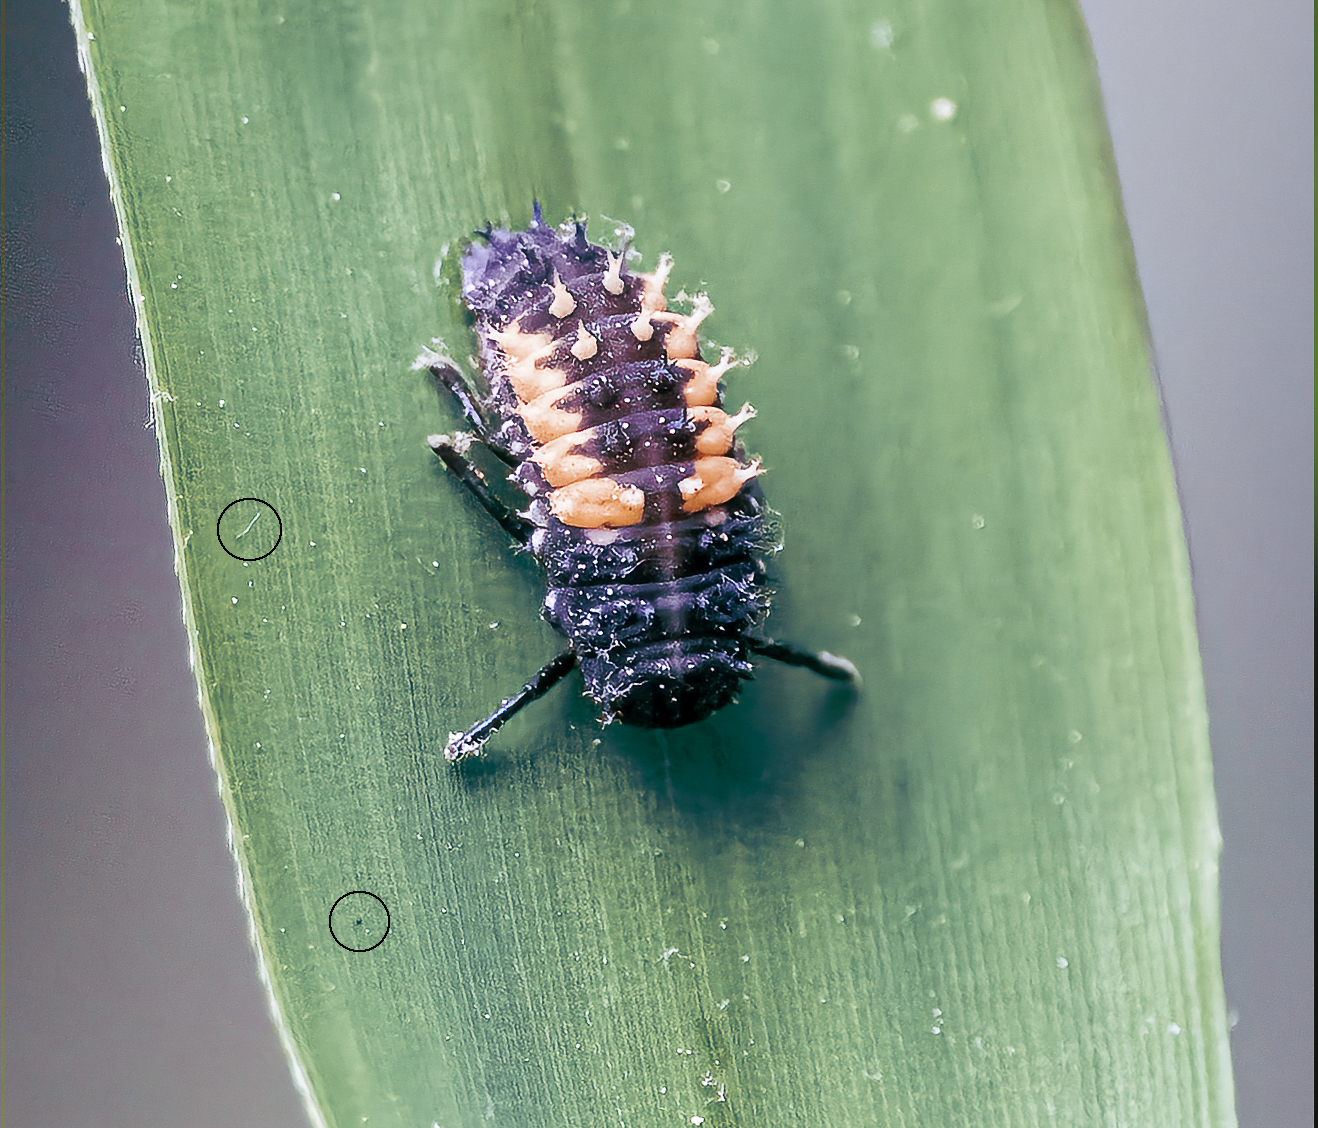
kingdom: Animalia
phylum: Arthropoda
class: Insecta
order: Coleoptera
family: Coccinellidae
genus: Harmonia
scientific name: Harmonia axyridis
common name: Harlequin ladybird
